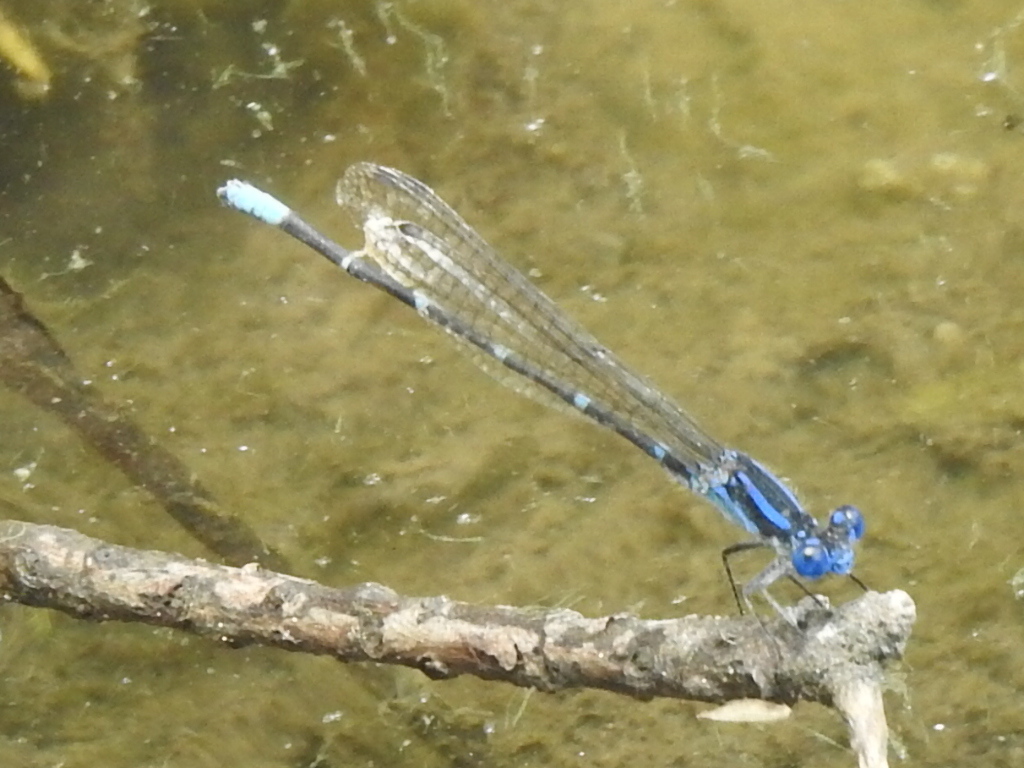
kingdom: Animalia
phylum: Arthropoda
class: Insecta
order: Odonata
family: Coenagrionidae
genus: Argia
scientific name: Argia sedula
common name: Blue-ringed dancer
